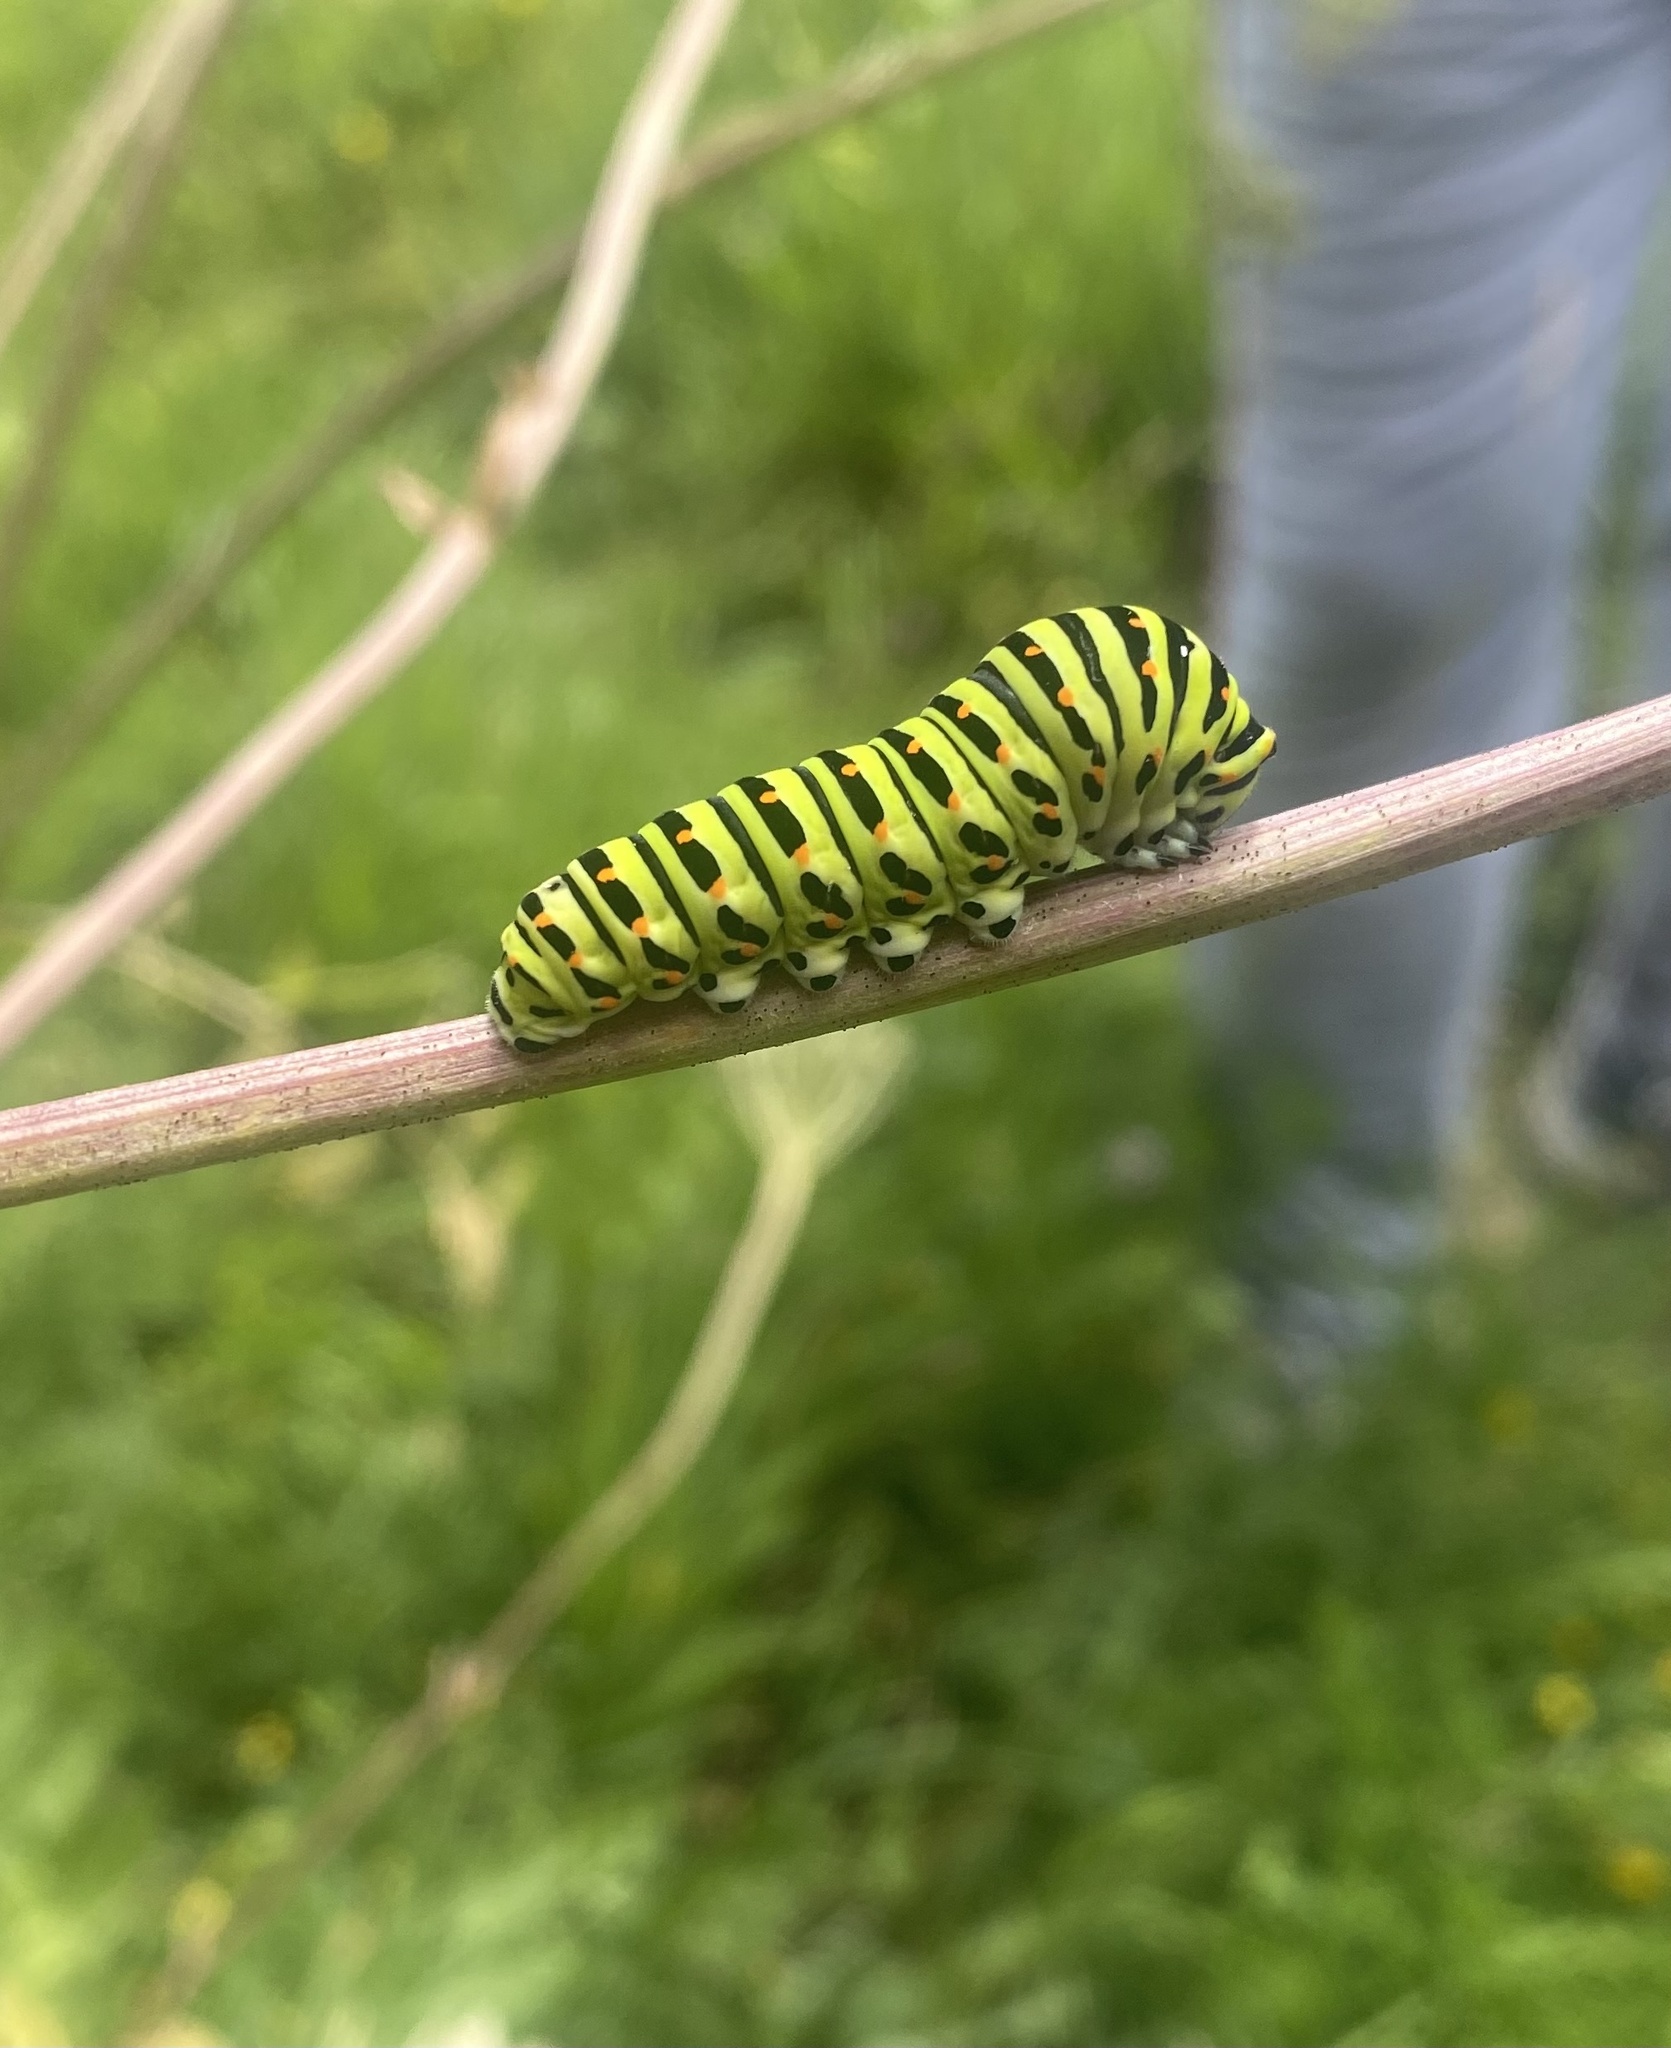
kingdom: Animalia
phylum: Arthropoda
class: Insecta
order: Lepidoptera
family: Papilionidae
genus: Papilio
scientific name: Papilio machaon
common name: Swallowtail
